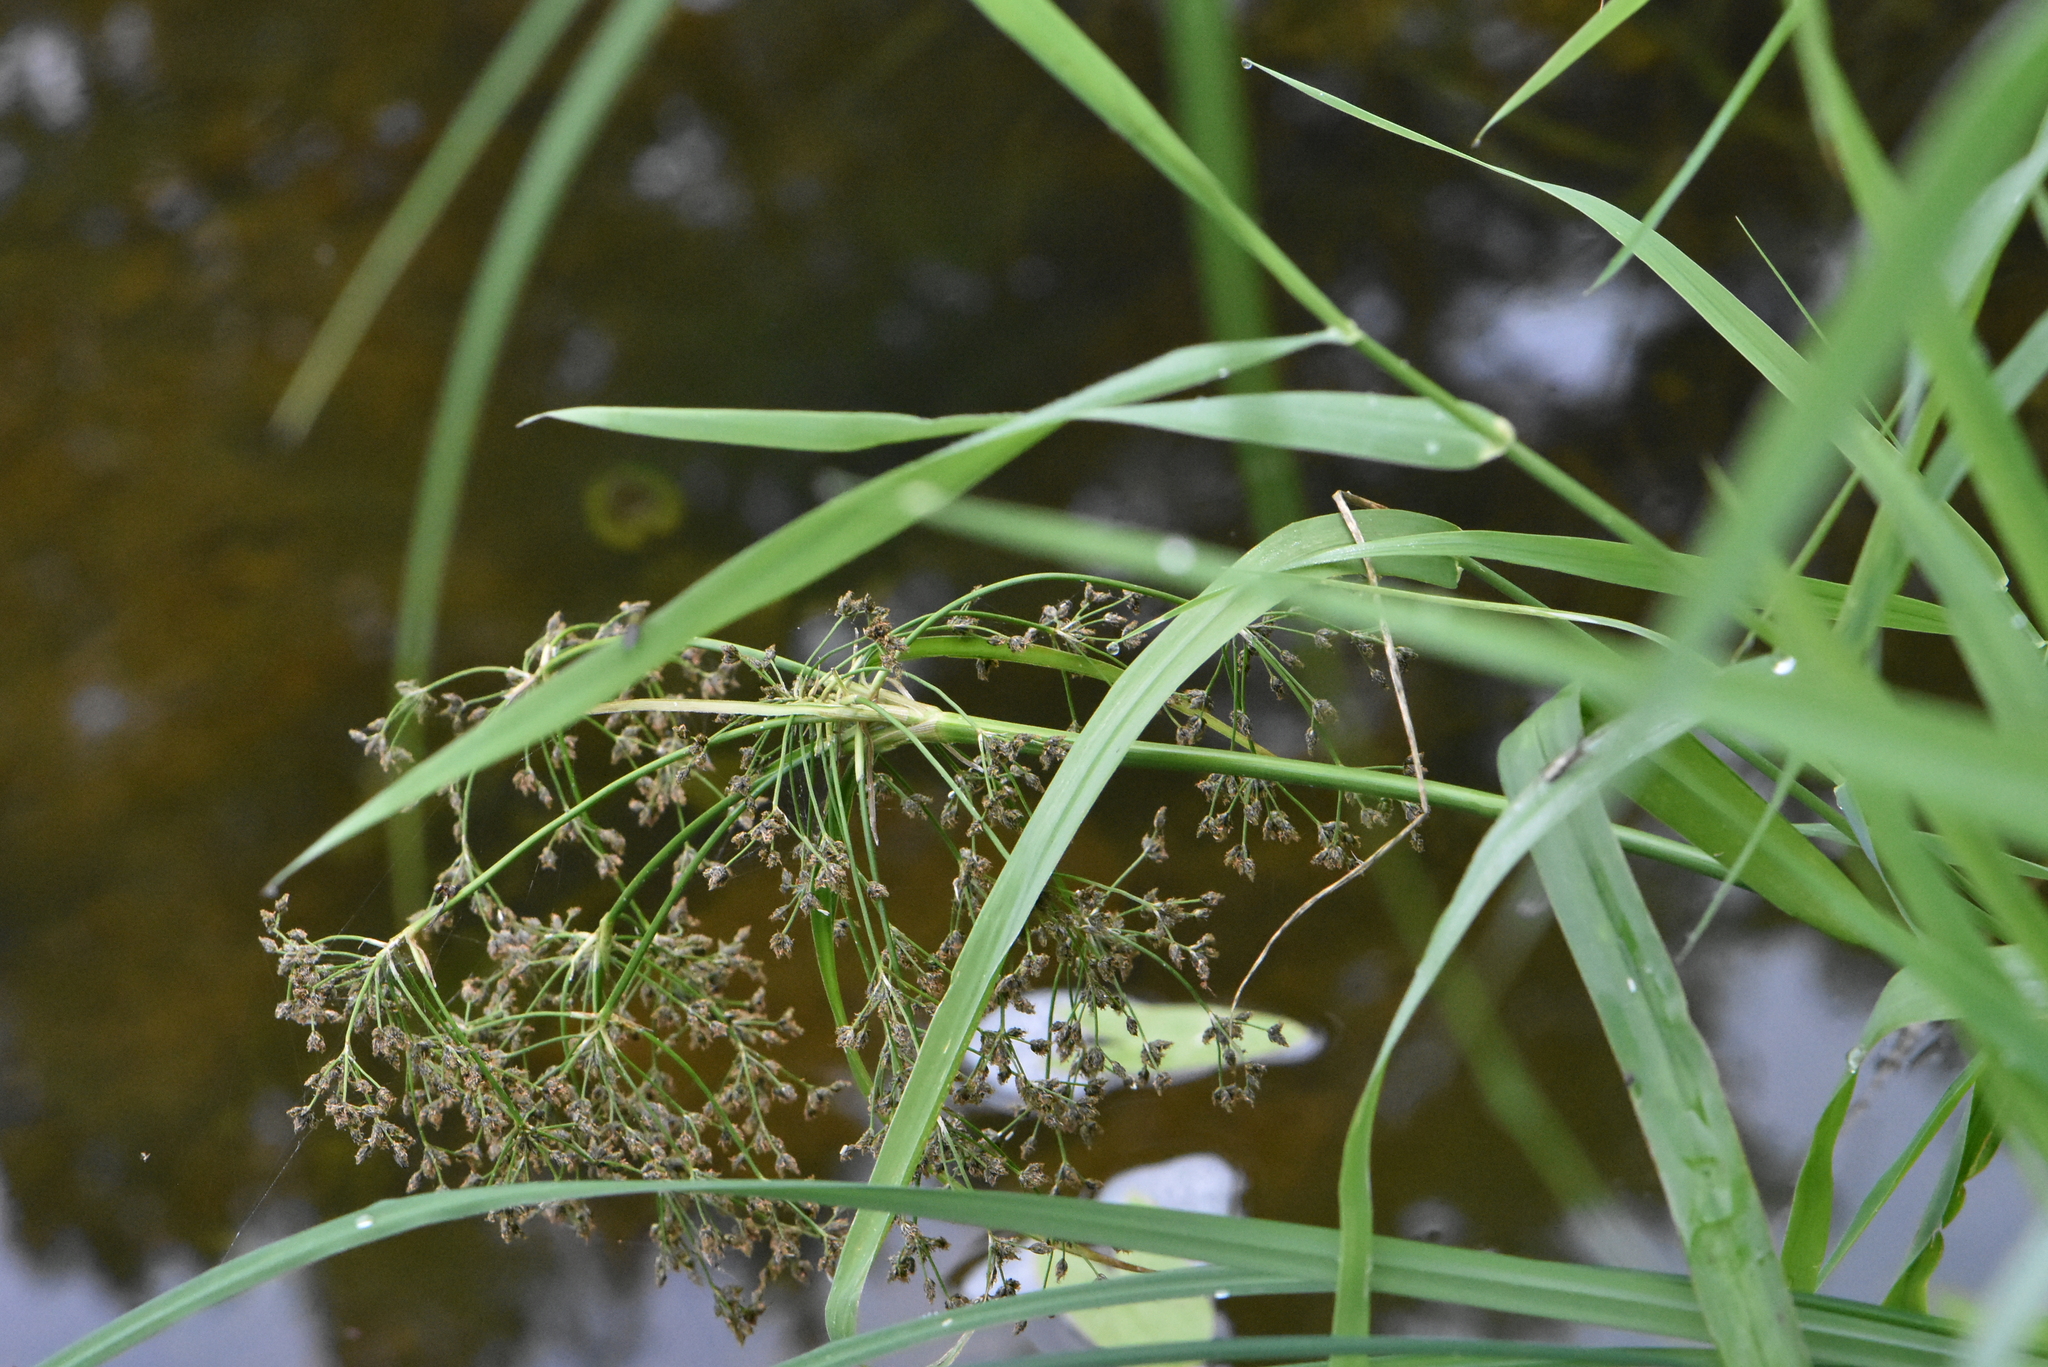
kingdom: Plantae
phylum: Tracheophyta
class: Liliopsida
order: Poales
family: Cyperaceae
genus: Scirpus
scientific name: Scirpus sylvaticus
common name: Wood club-rush
